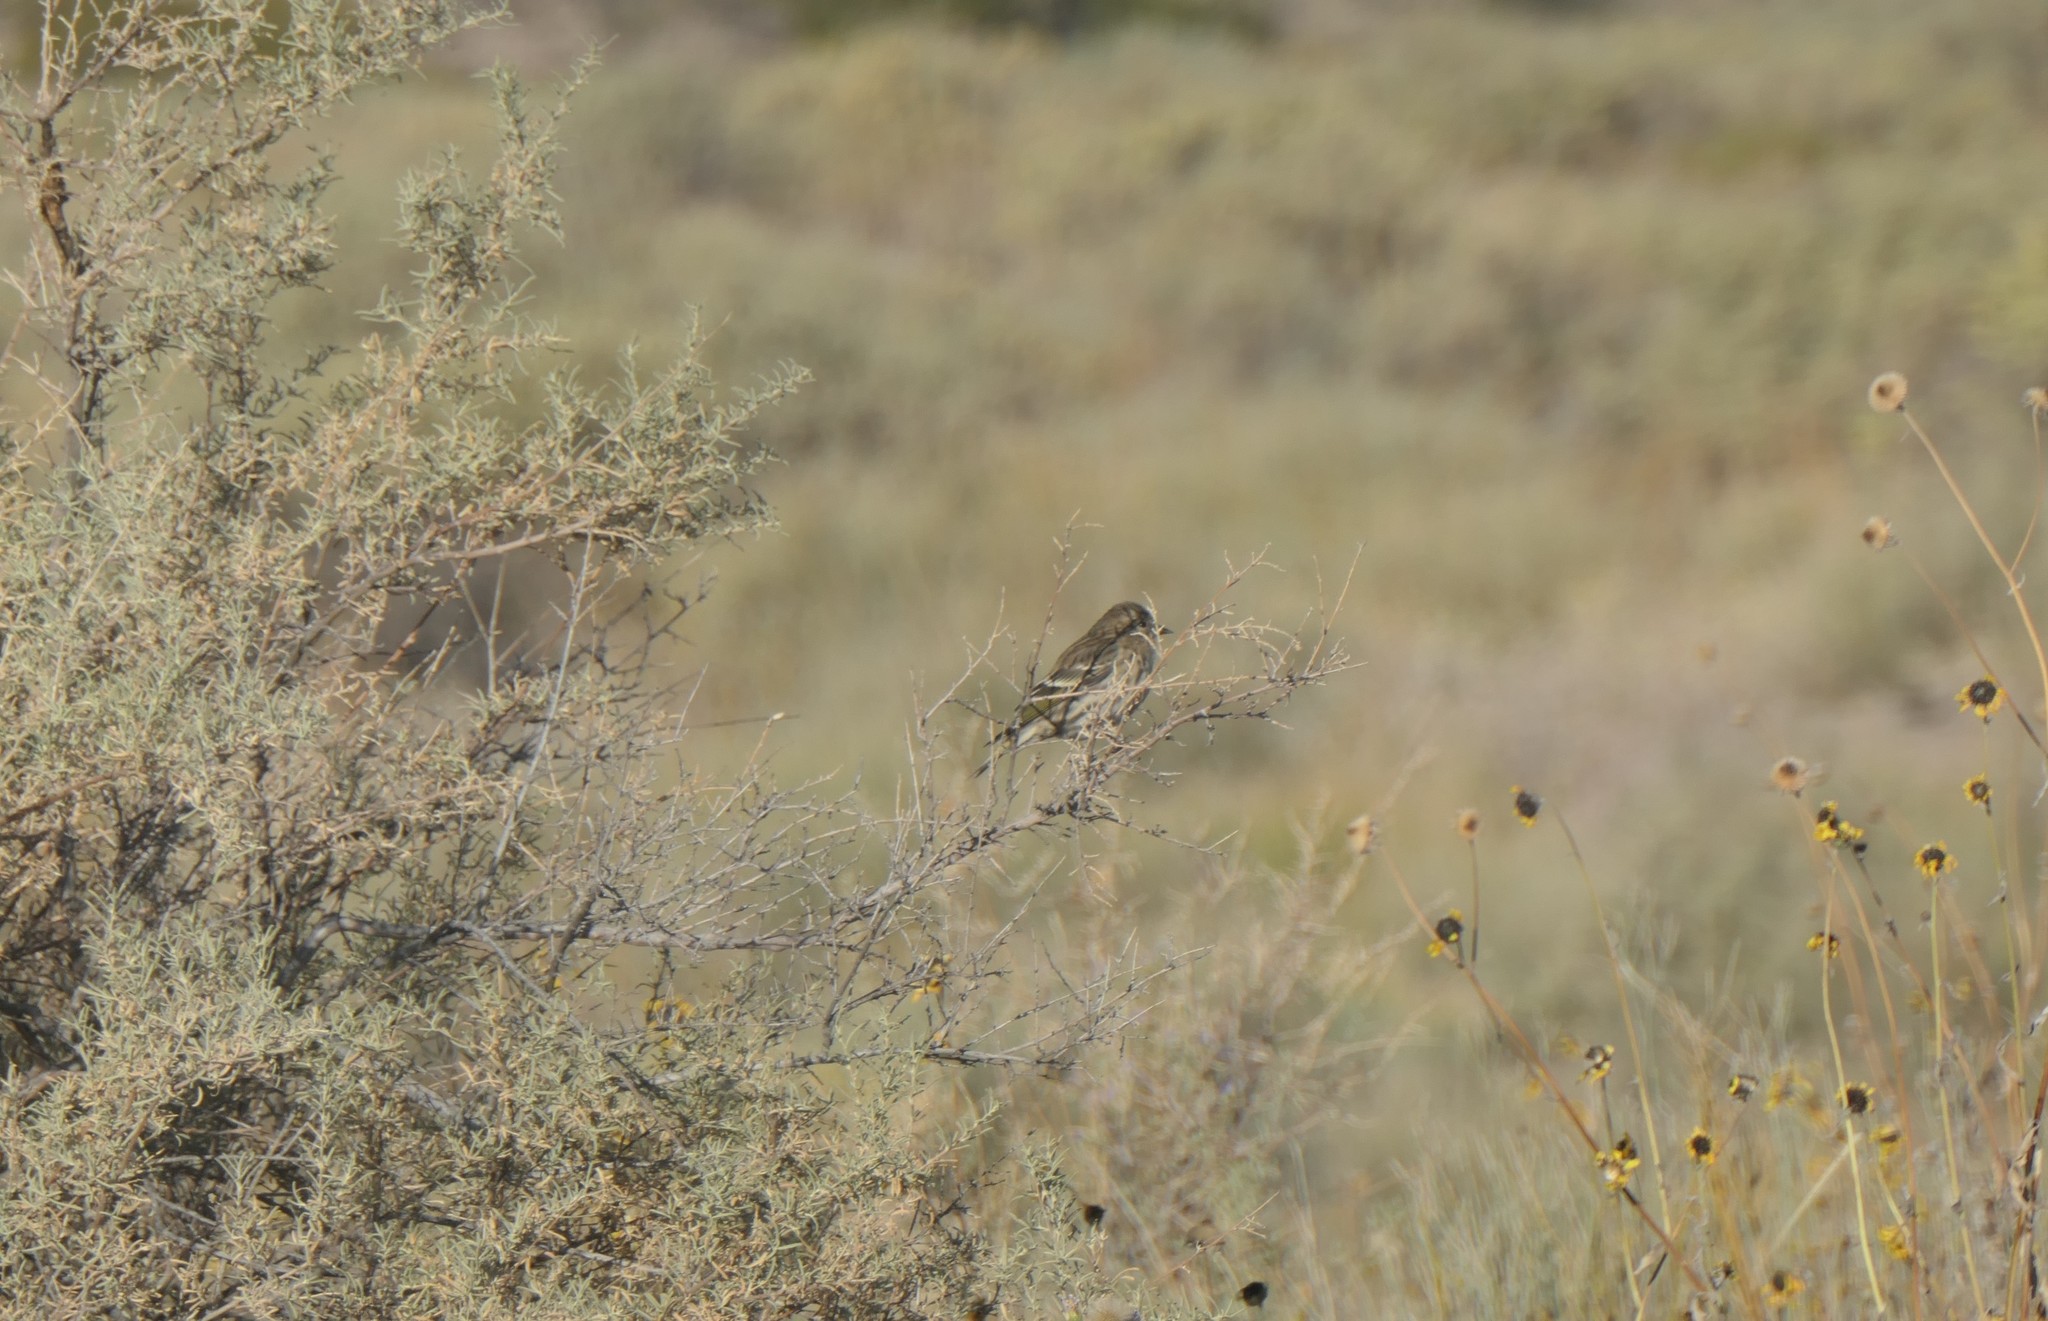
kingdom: Animalia
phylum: Chordata
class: Aves
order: Passeriformes
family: Fringillidae
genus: Spinus
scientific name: Spinus pinus
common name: Pine siskin
